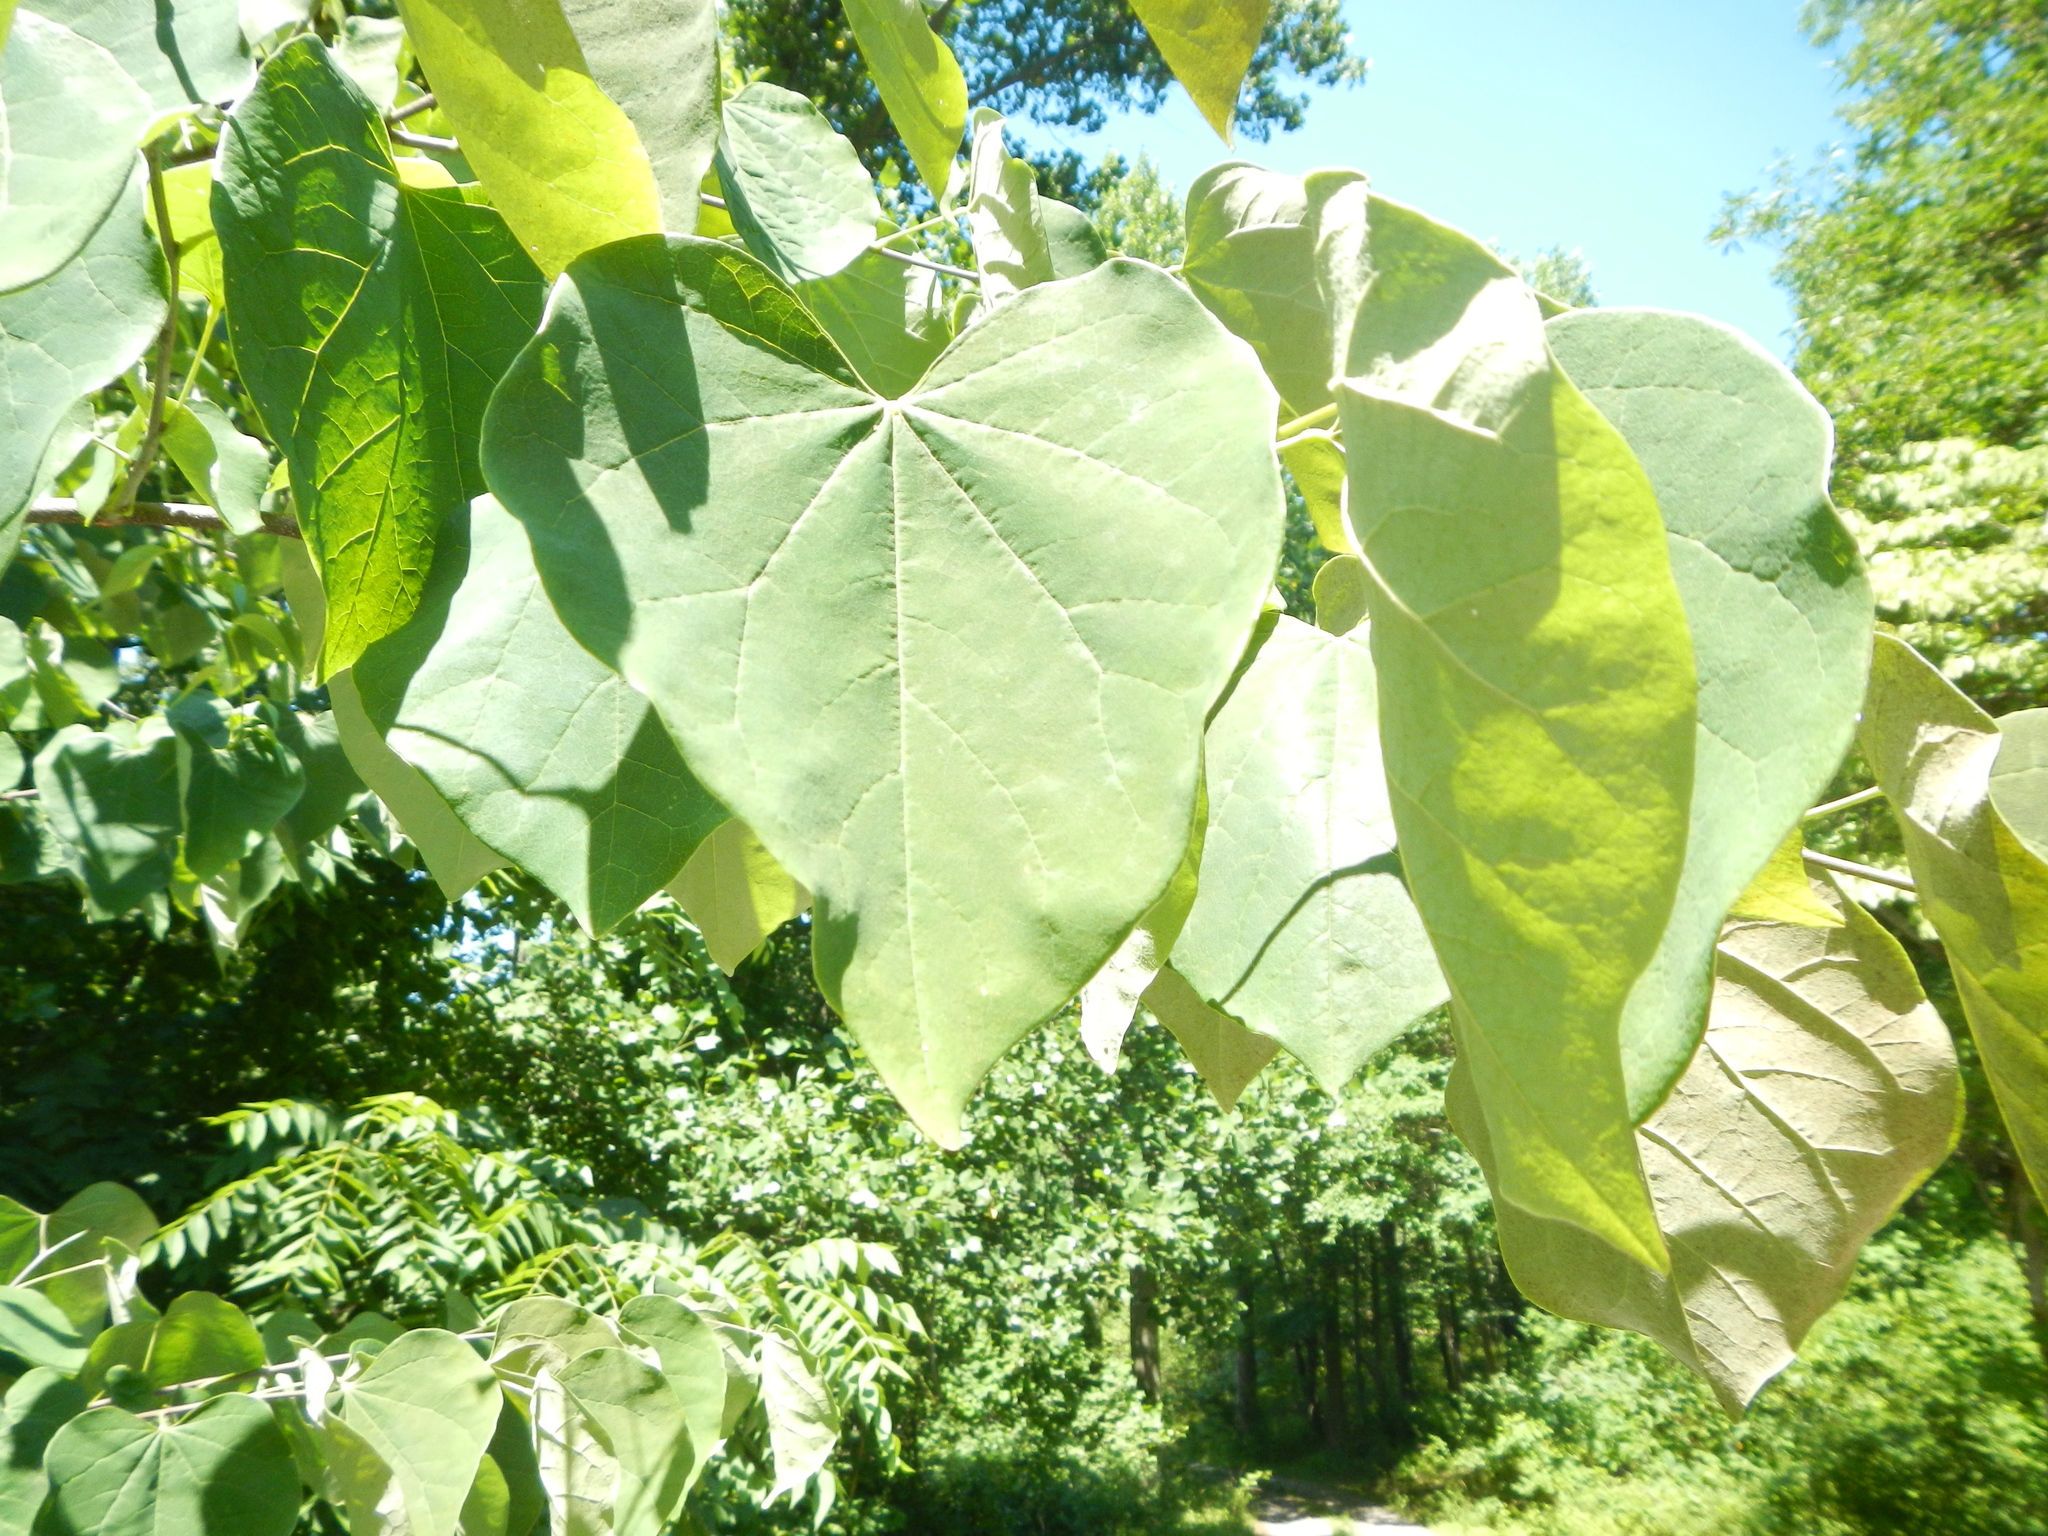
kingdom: Plantae
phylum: Tracheophyta
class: Magnoliopsida
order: Fabales
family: Fabaceae
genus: Cercis
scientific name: Cercis canadensis
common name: Eastern redbud
